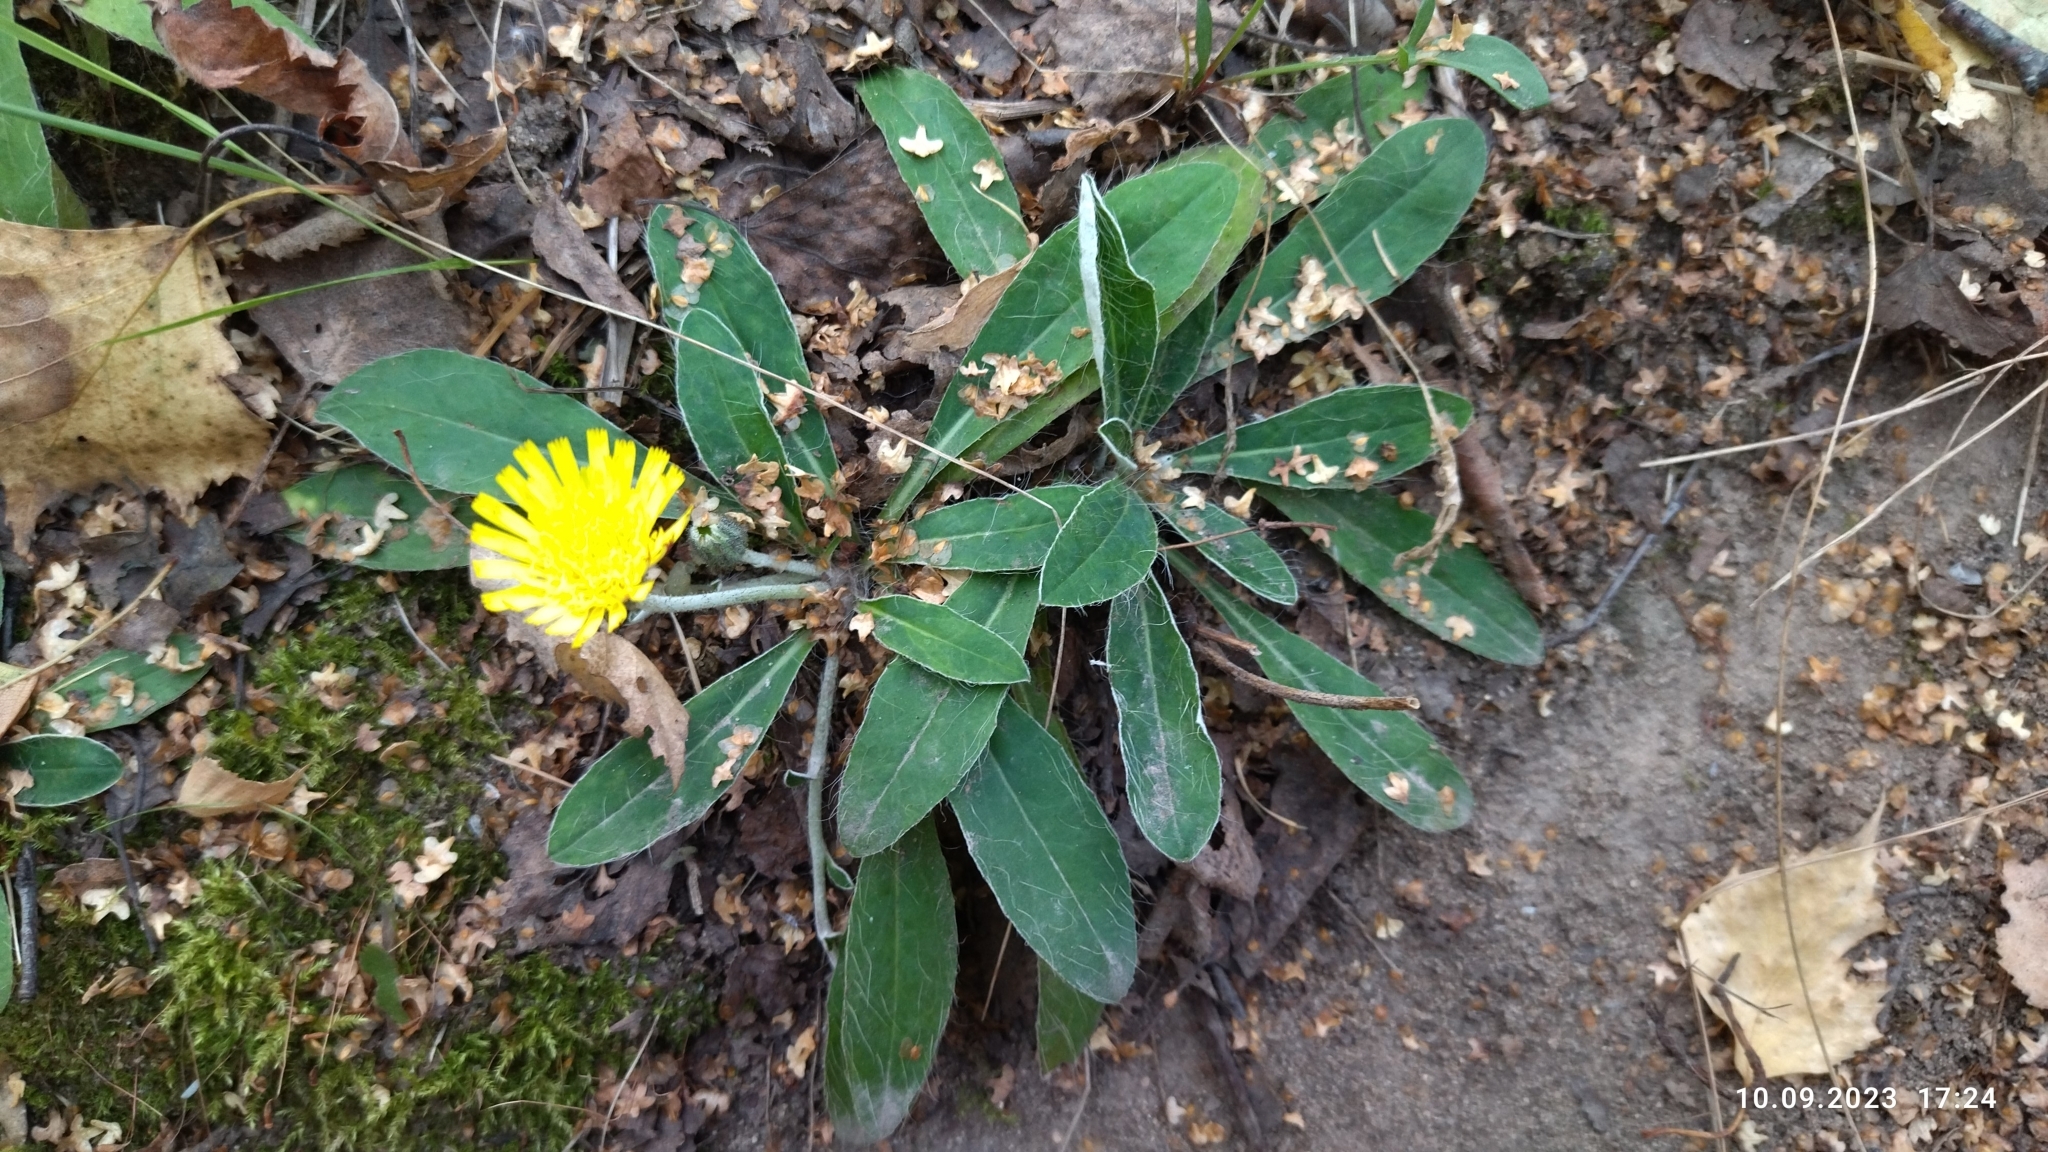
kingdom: Plantae
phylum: Tracheophyta
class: Magnoliopsida
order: Asterales
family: Asteraceae
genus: Pilosella
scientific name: Pilosella officinarum
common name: Mouse-ear hawkweed
